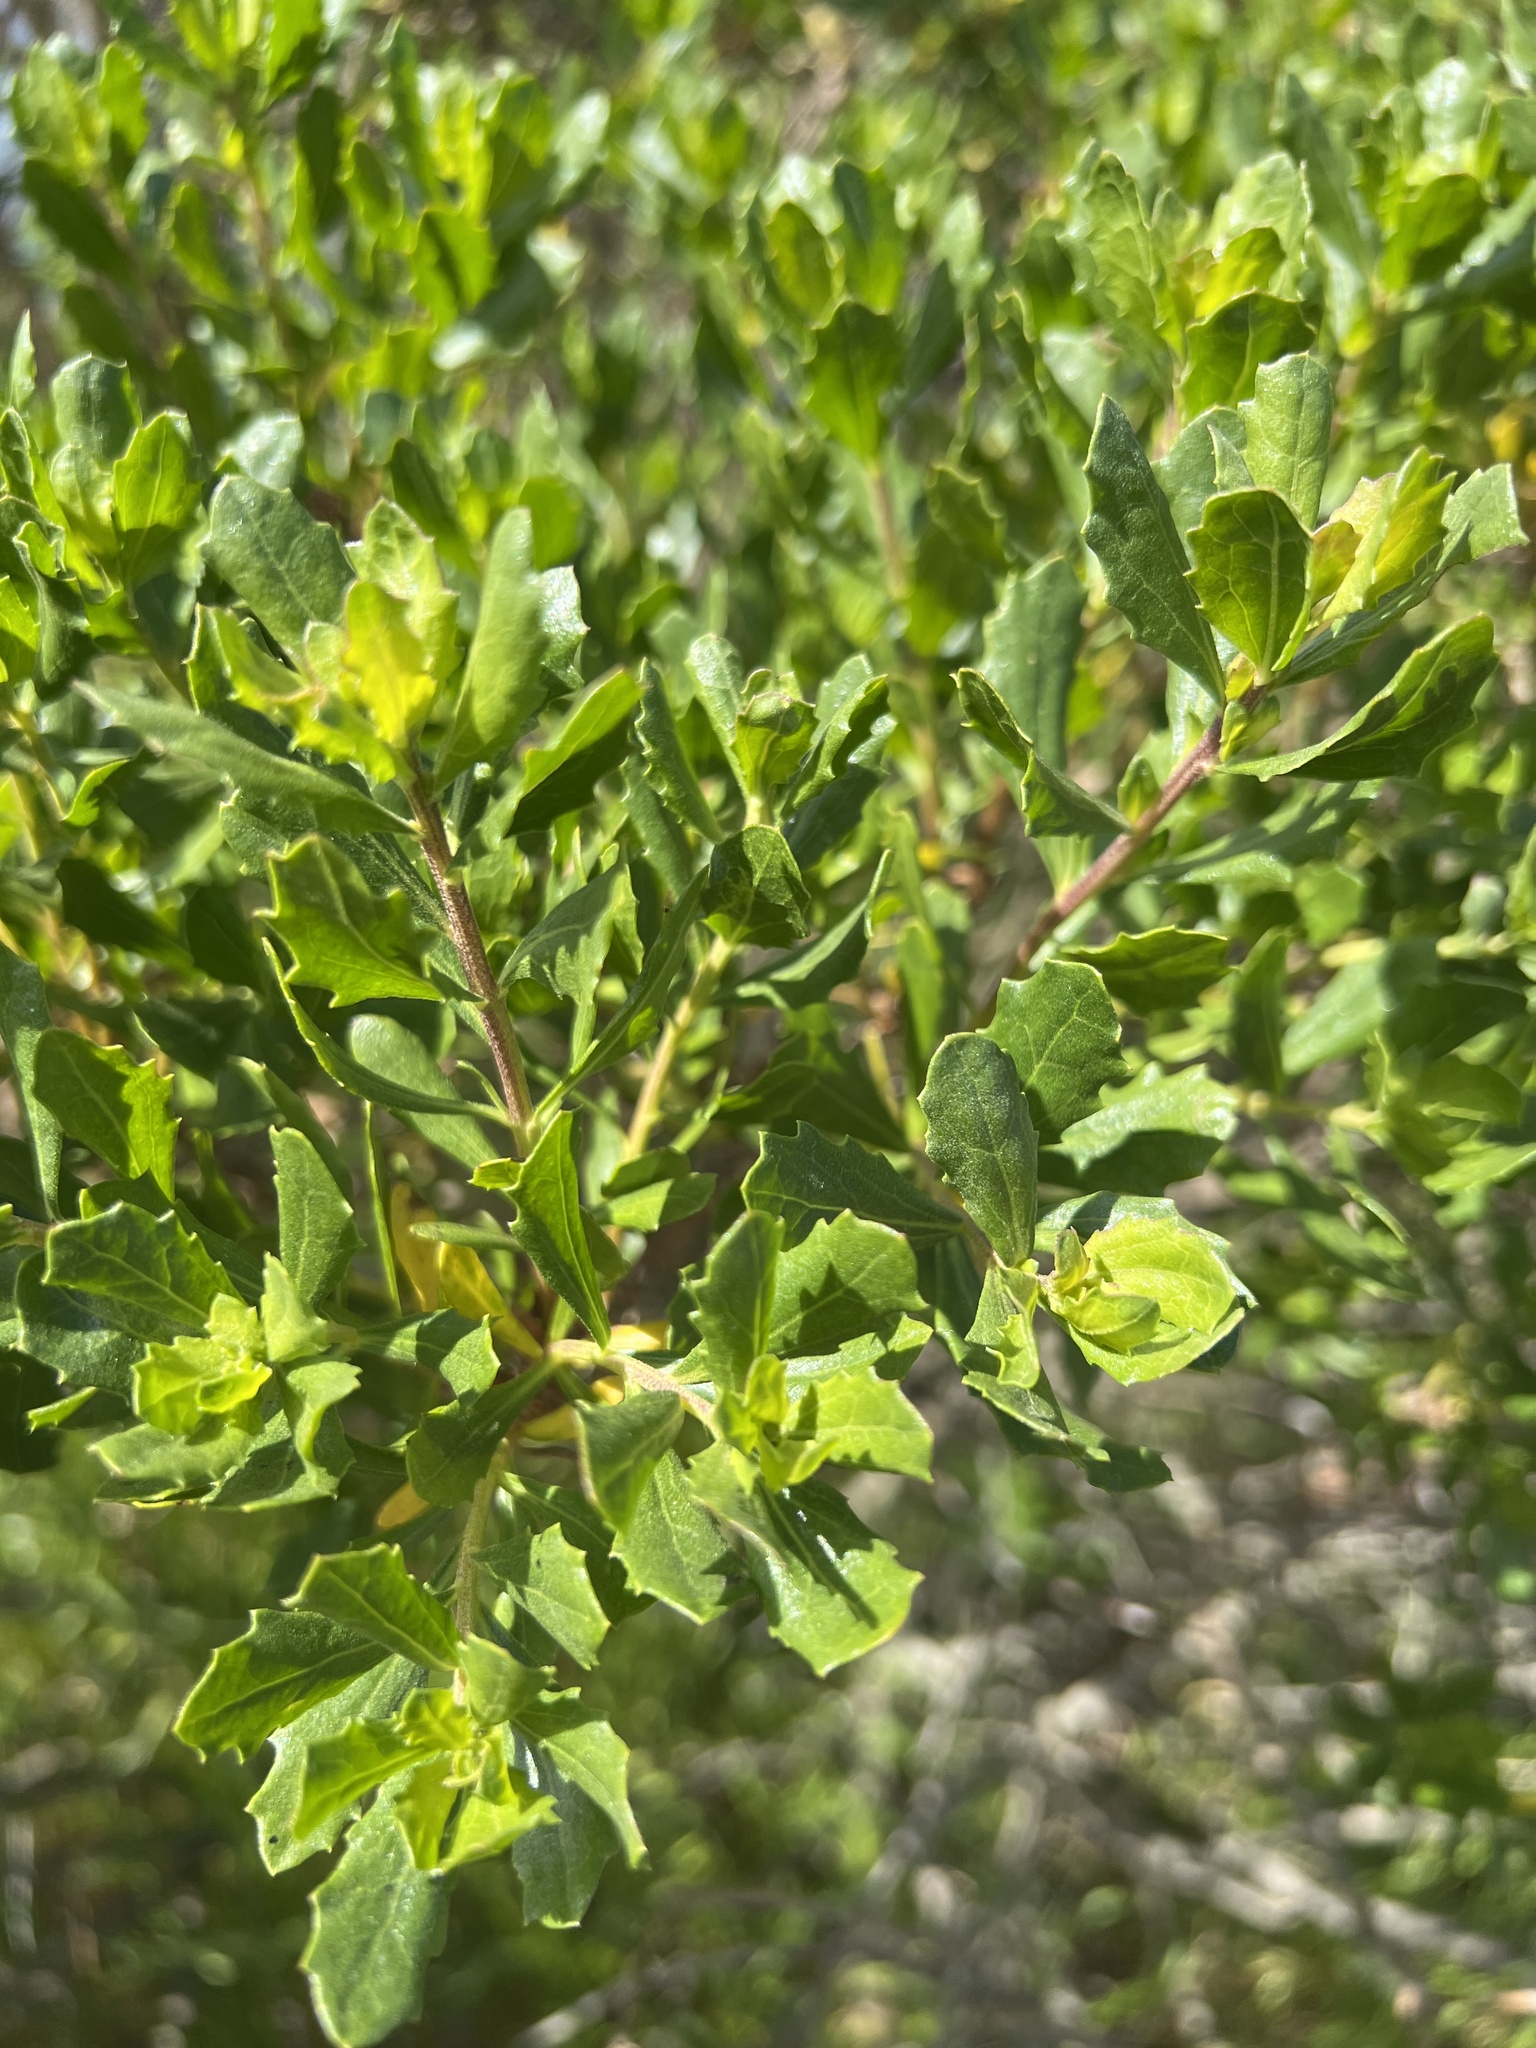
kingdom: Plantae
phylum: Tracheophyta
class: Magnoliopsida
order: Asterales
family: Asteraceae
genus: Baccharis
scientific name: Baccharis pilularis
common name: Coyotebrush
